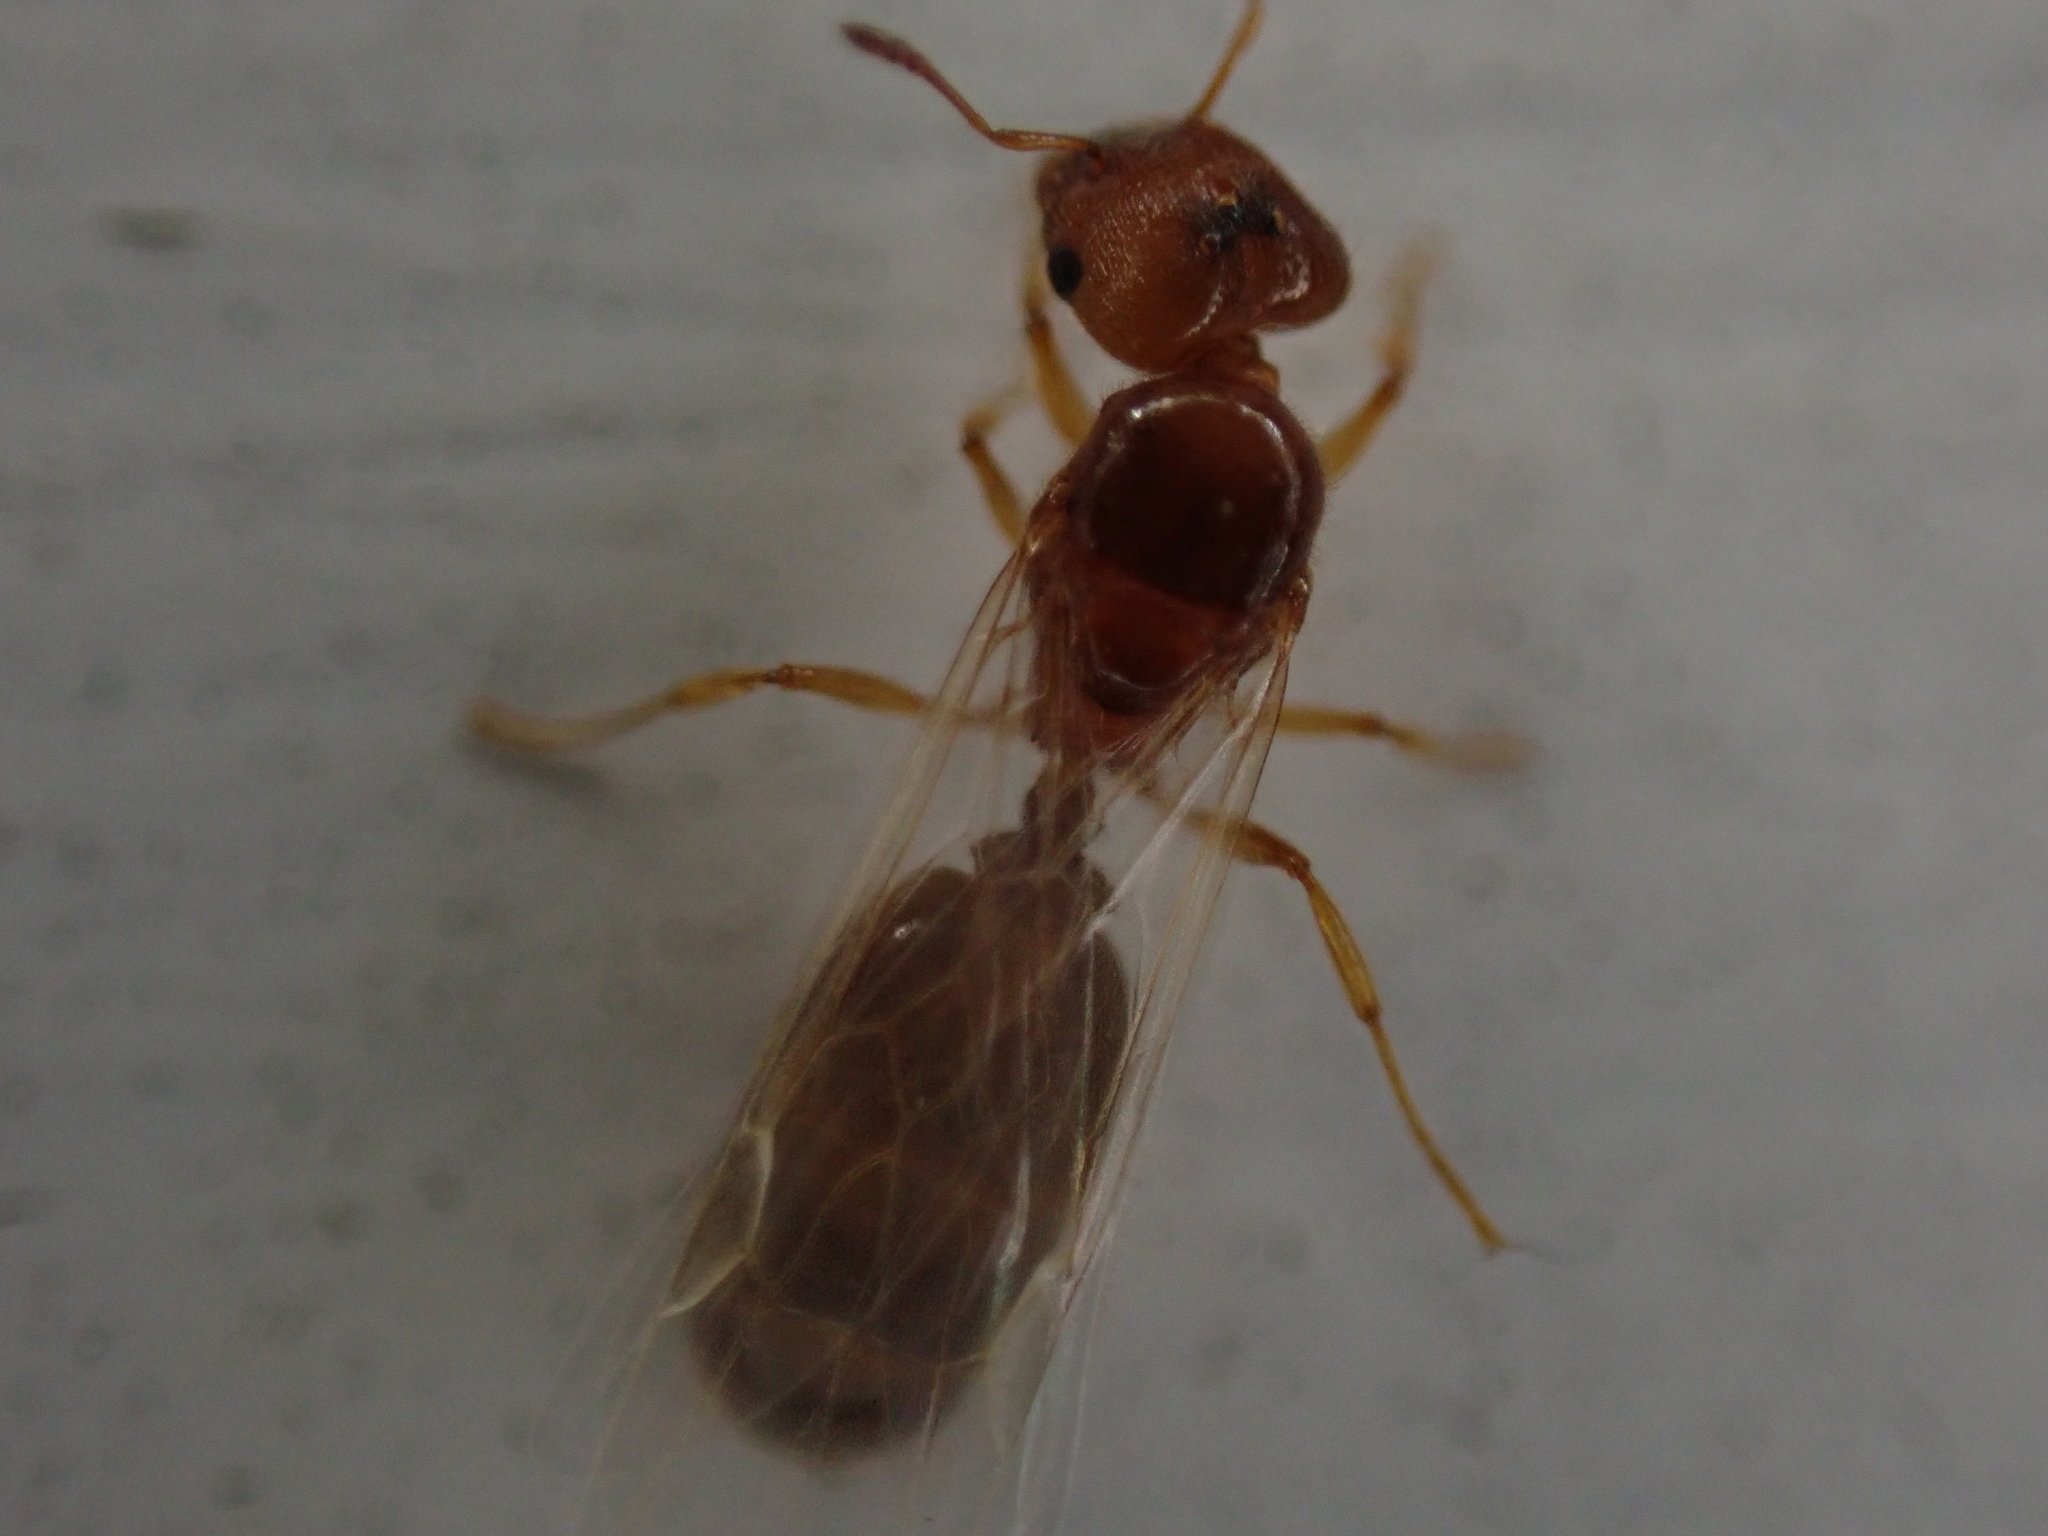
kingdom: Animalia
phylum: Arthropoda
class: Insecta
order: Hymenoptera
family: Formicidae
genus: Pheidole
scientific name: Pheidole bicarinata
